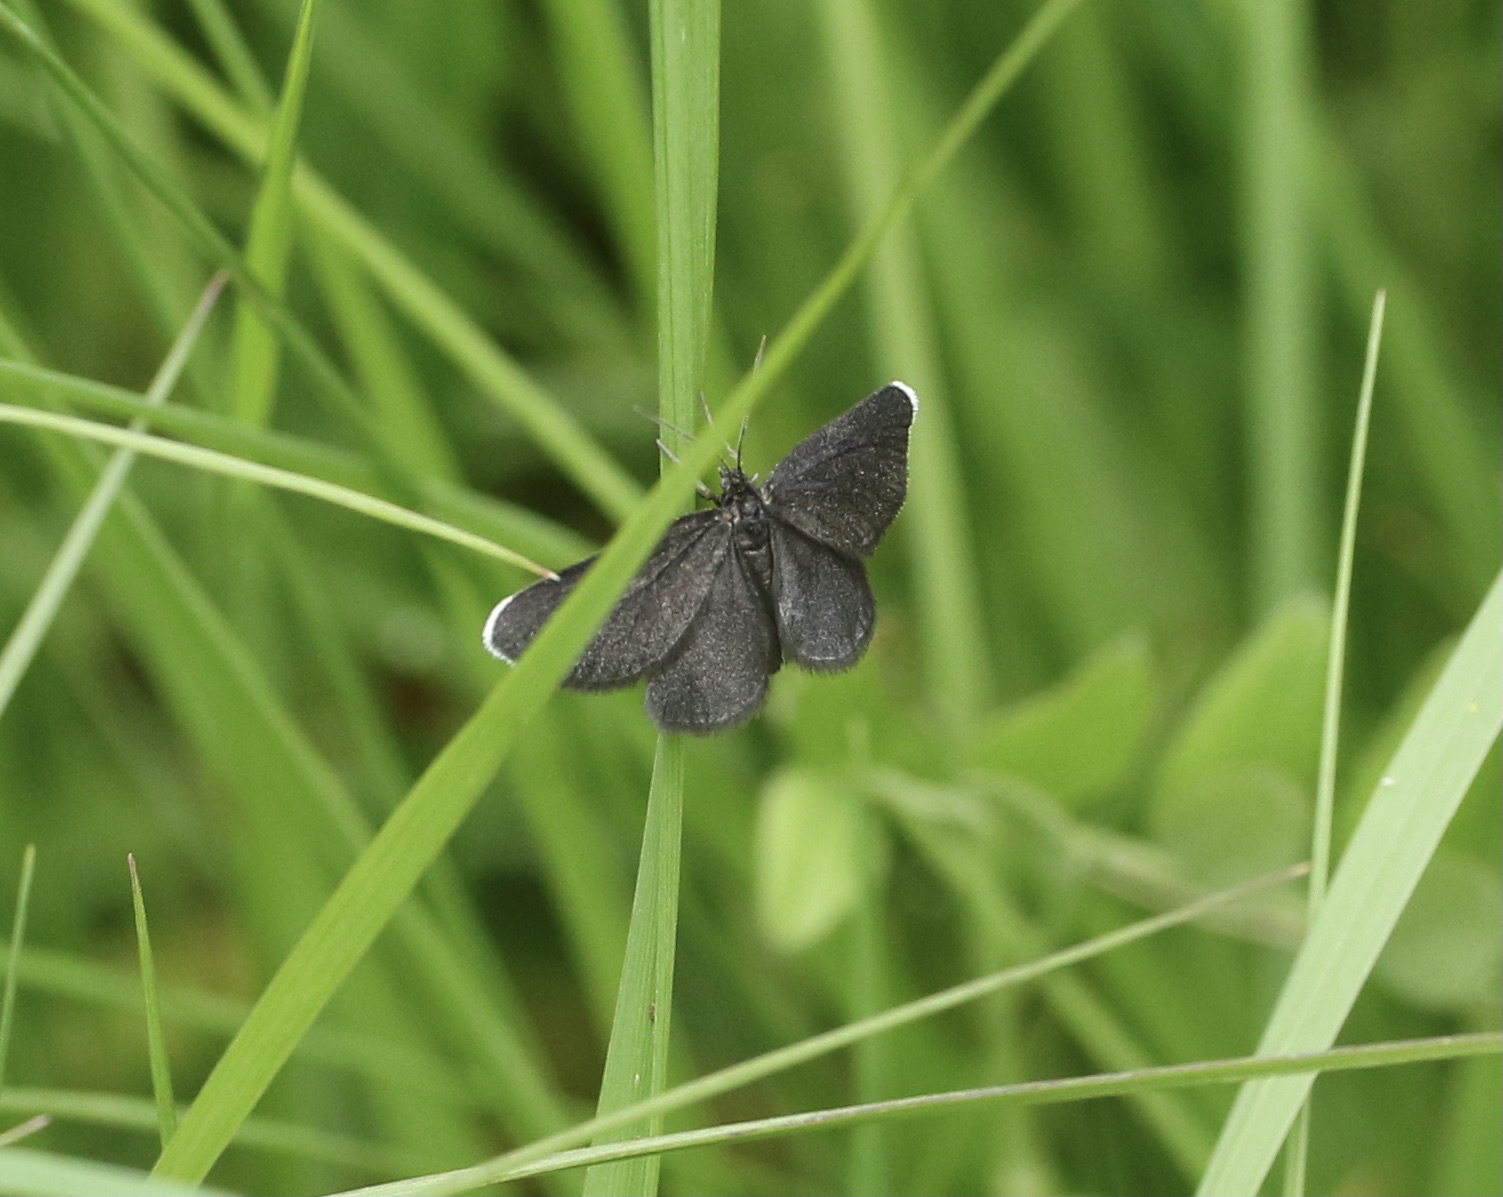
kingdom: Animalia
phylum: Arthropoda
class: Insecta
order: Lepidoptera
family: Geometridae
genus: Odezia
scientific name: Odezia atrata
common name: Chimney sweeper
